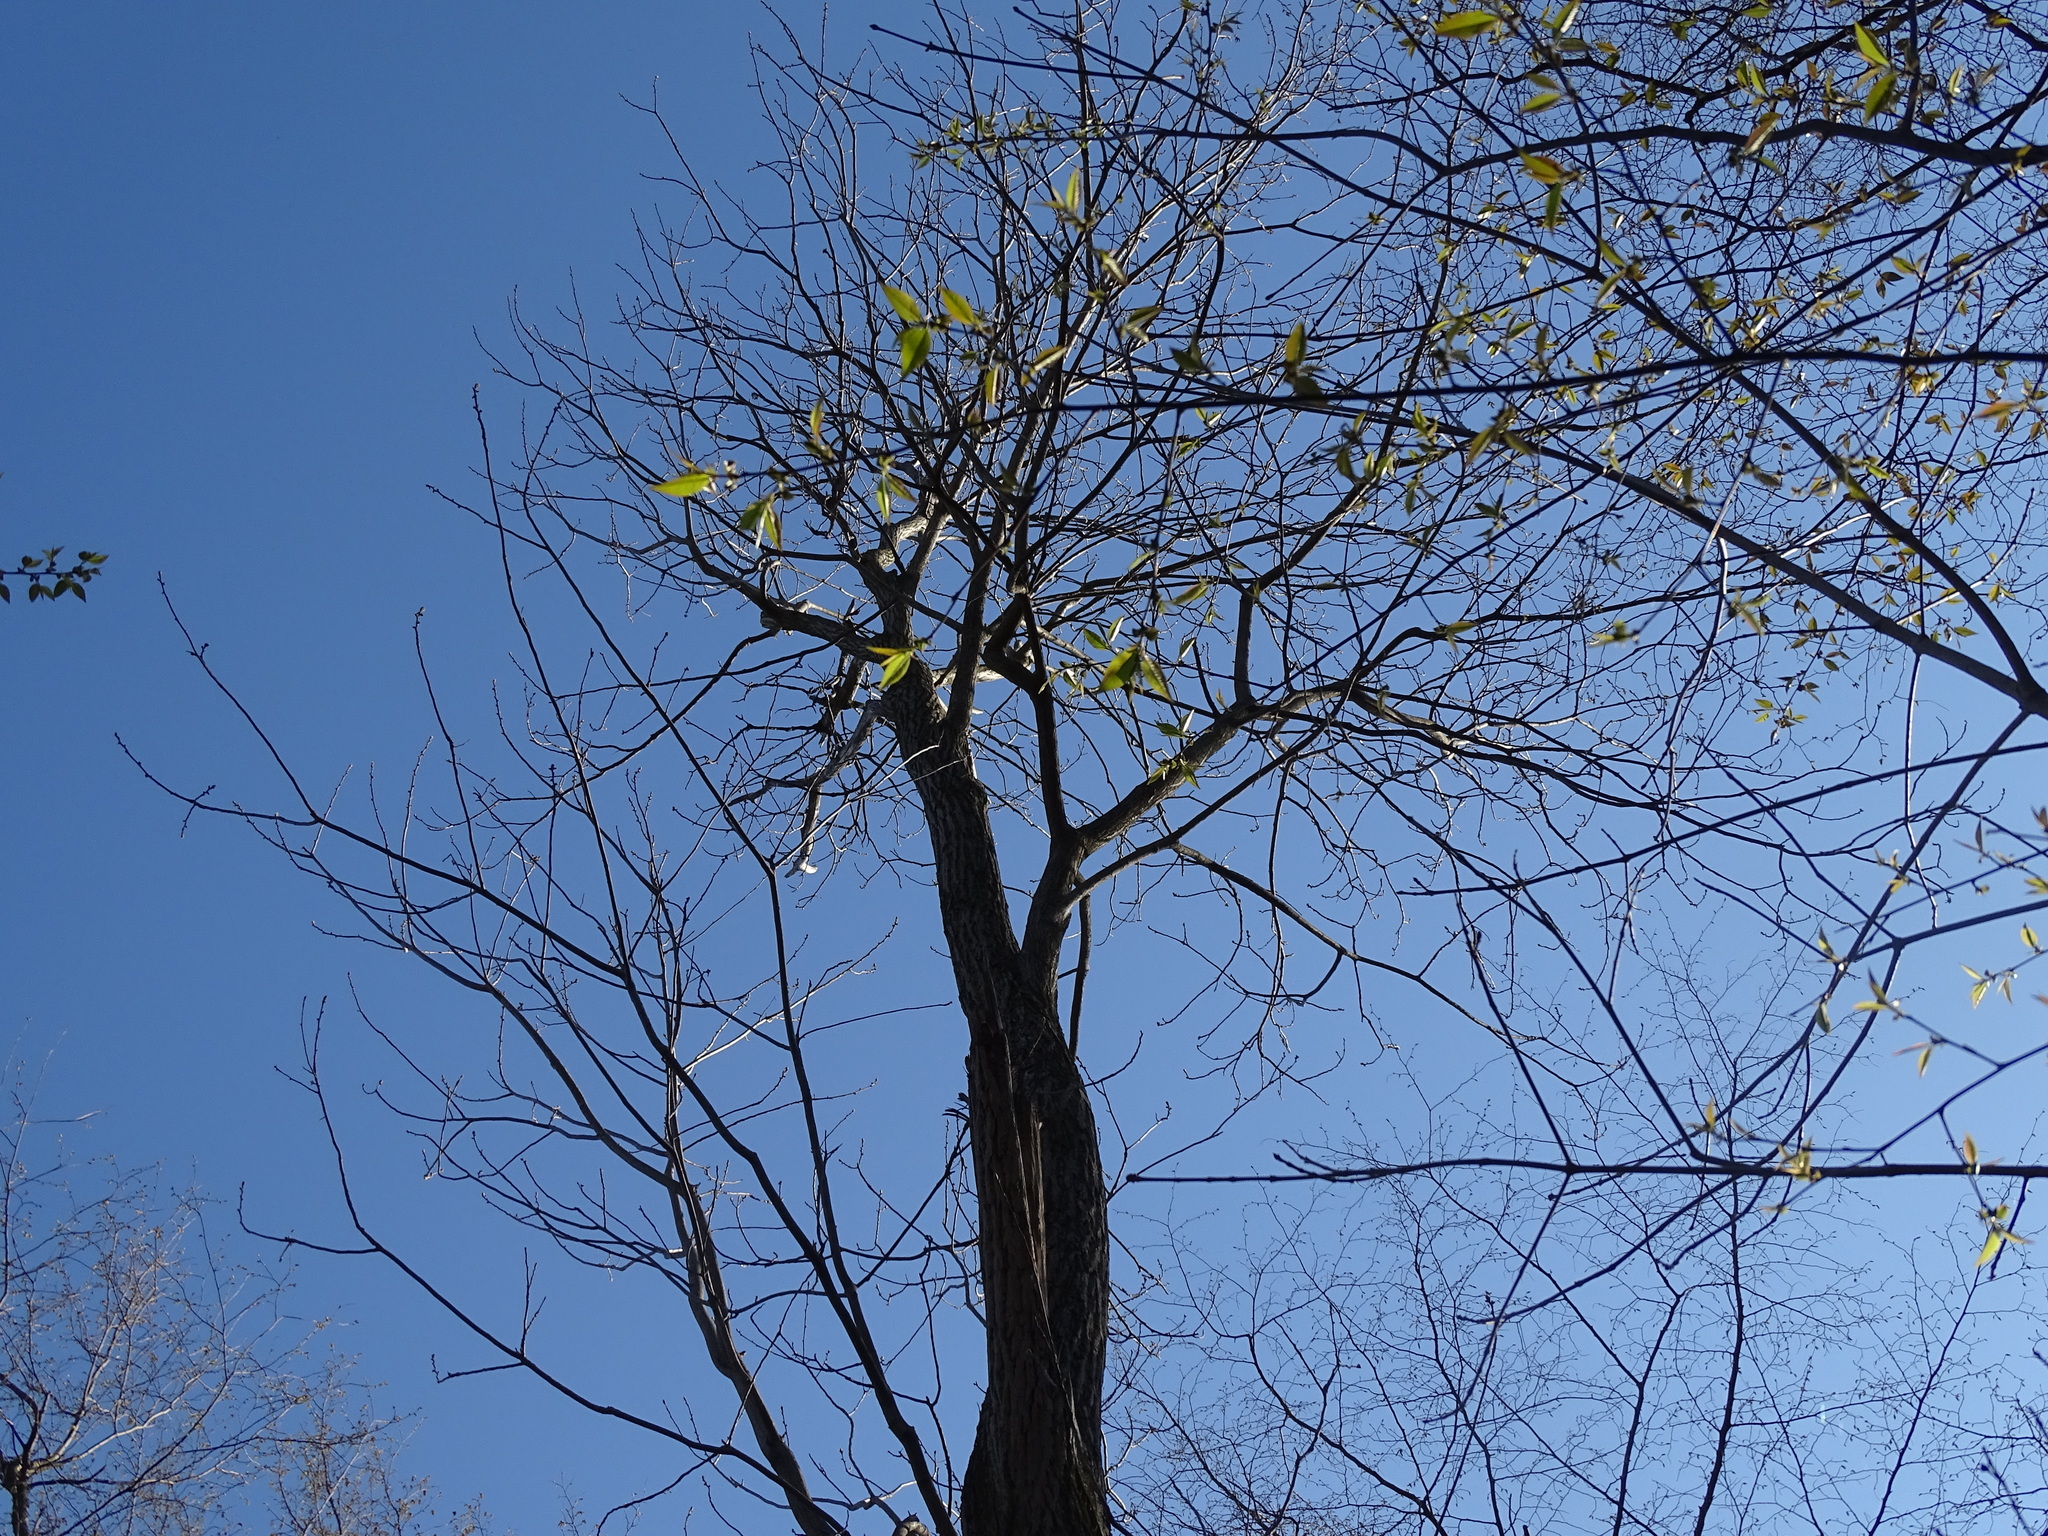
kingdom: Plantae
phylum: Tracheophyta
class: Magnoliopsida
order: Fagales
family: Juglandaceae
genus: Juglans
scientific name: Juglans cinerea
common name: Butternut
